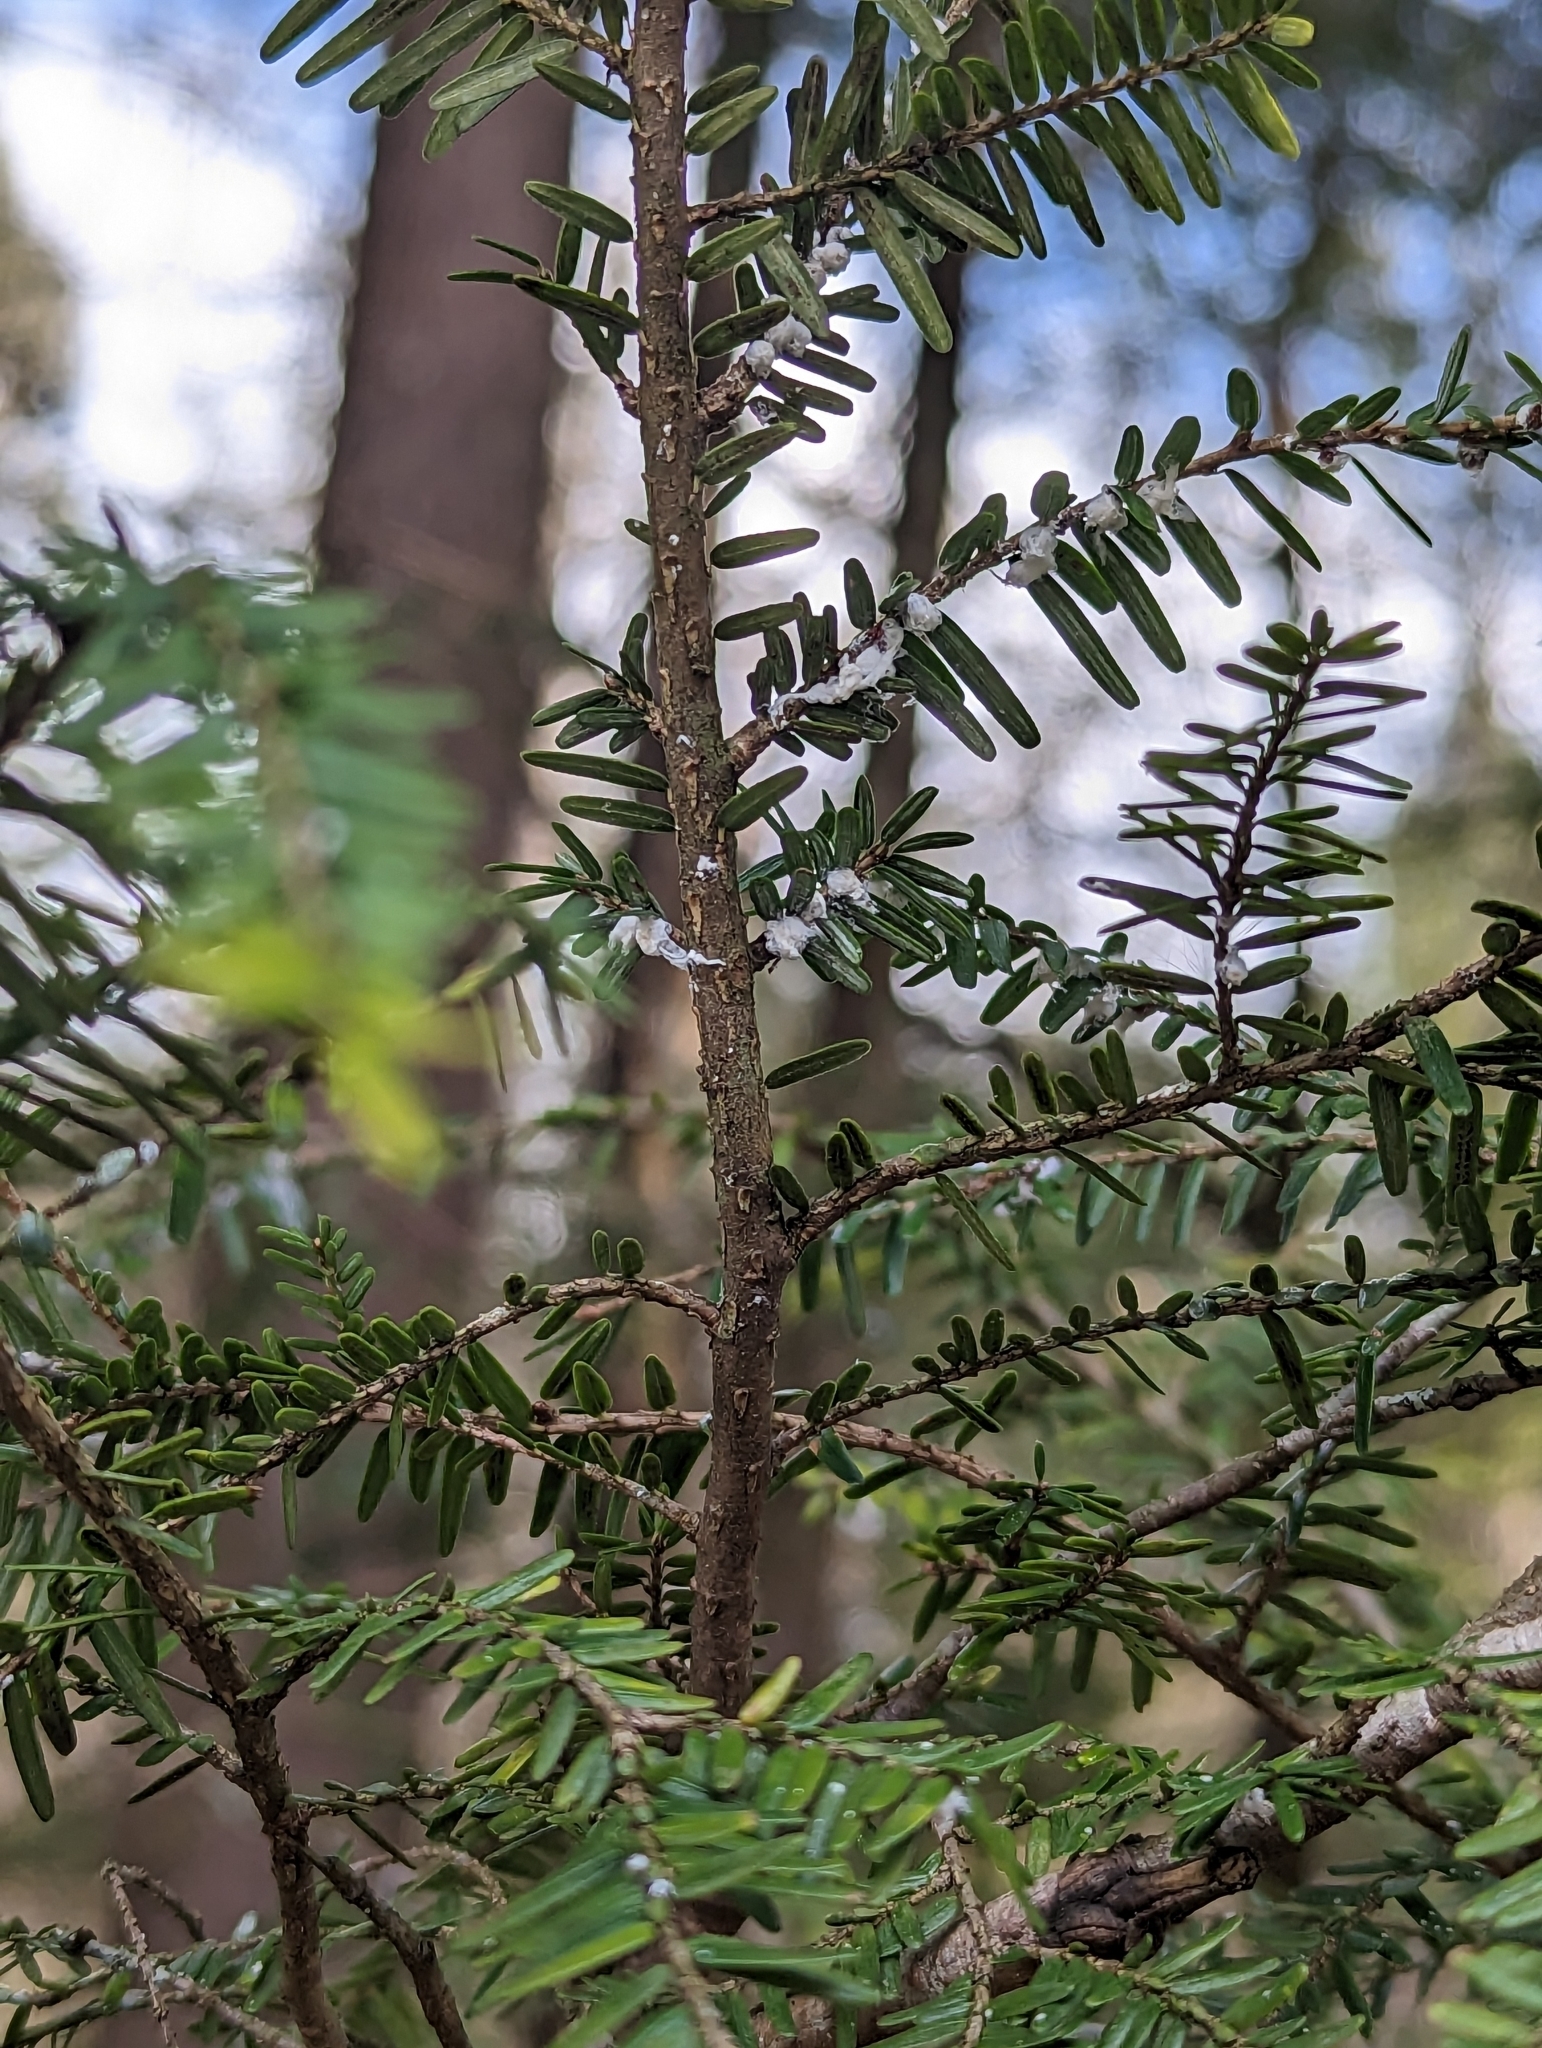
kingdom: Animalia
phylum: Arthropoda
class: Insecta
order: Hemiptera
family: Adelgidae
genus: Adelges
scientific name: Adelges tsugae
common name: Hemlock woolly adelgid
